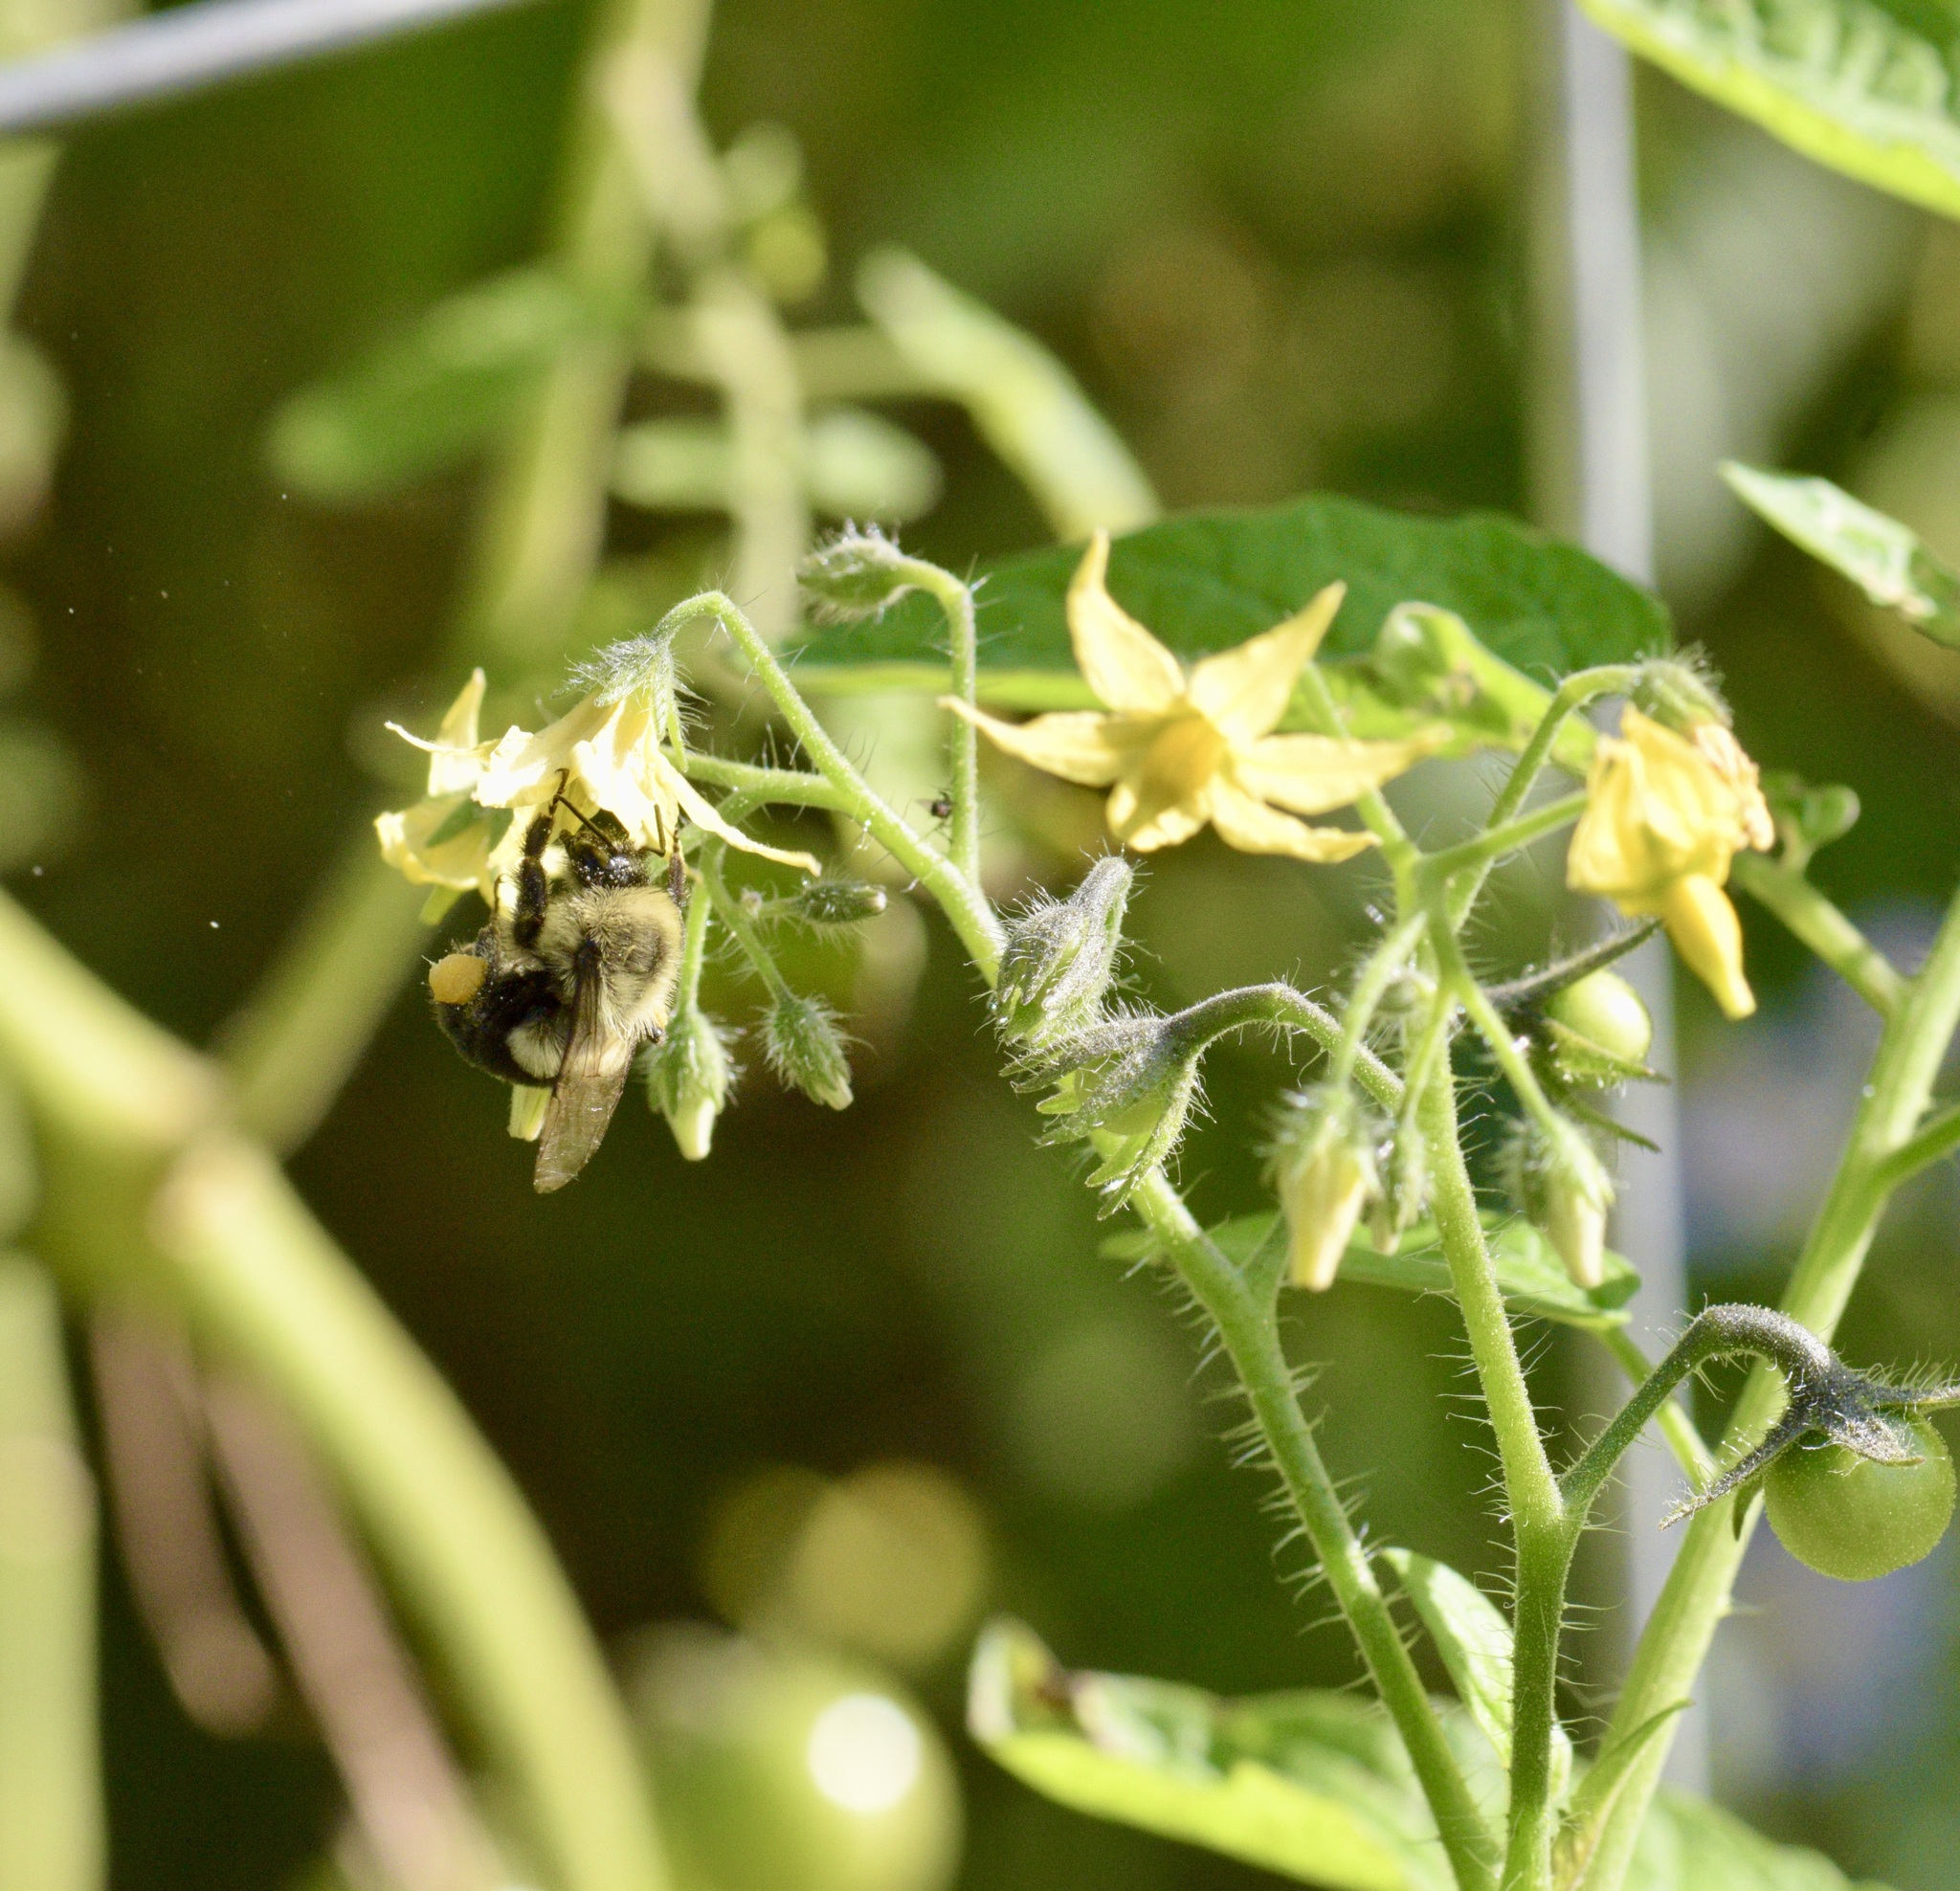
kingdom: Animalia
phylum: Arthropoda
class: Insecta
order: Hymenoptera
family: Apidae
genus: Bombus
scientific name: Bombus impatiens
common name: Common eastern bumble bee
